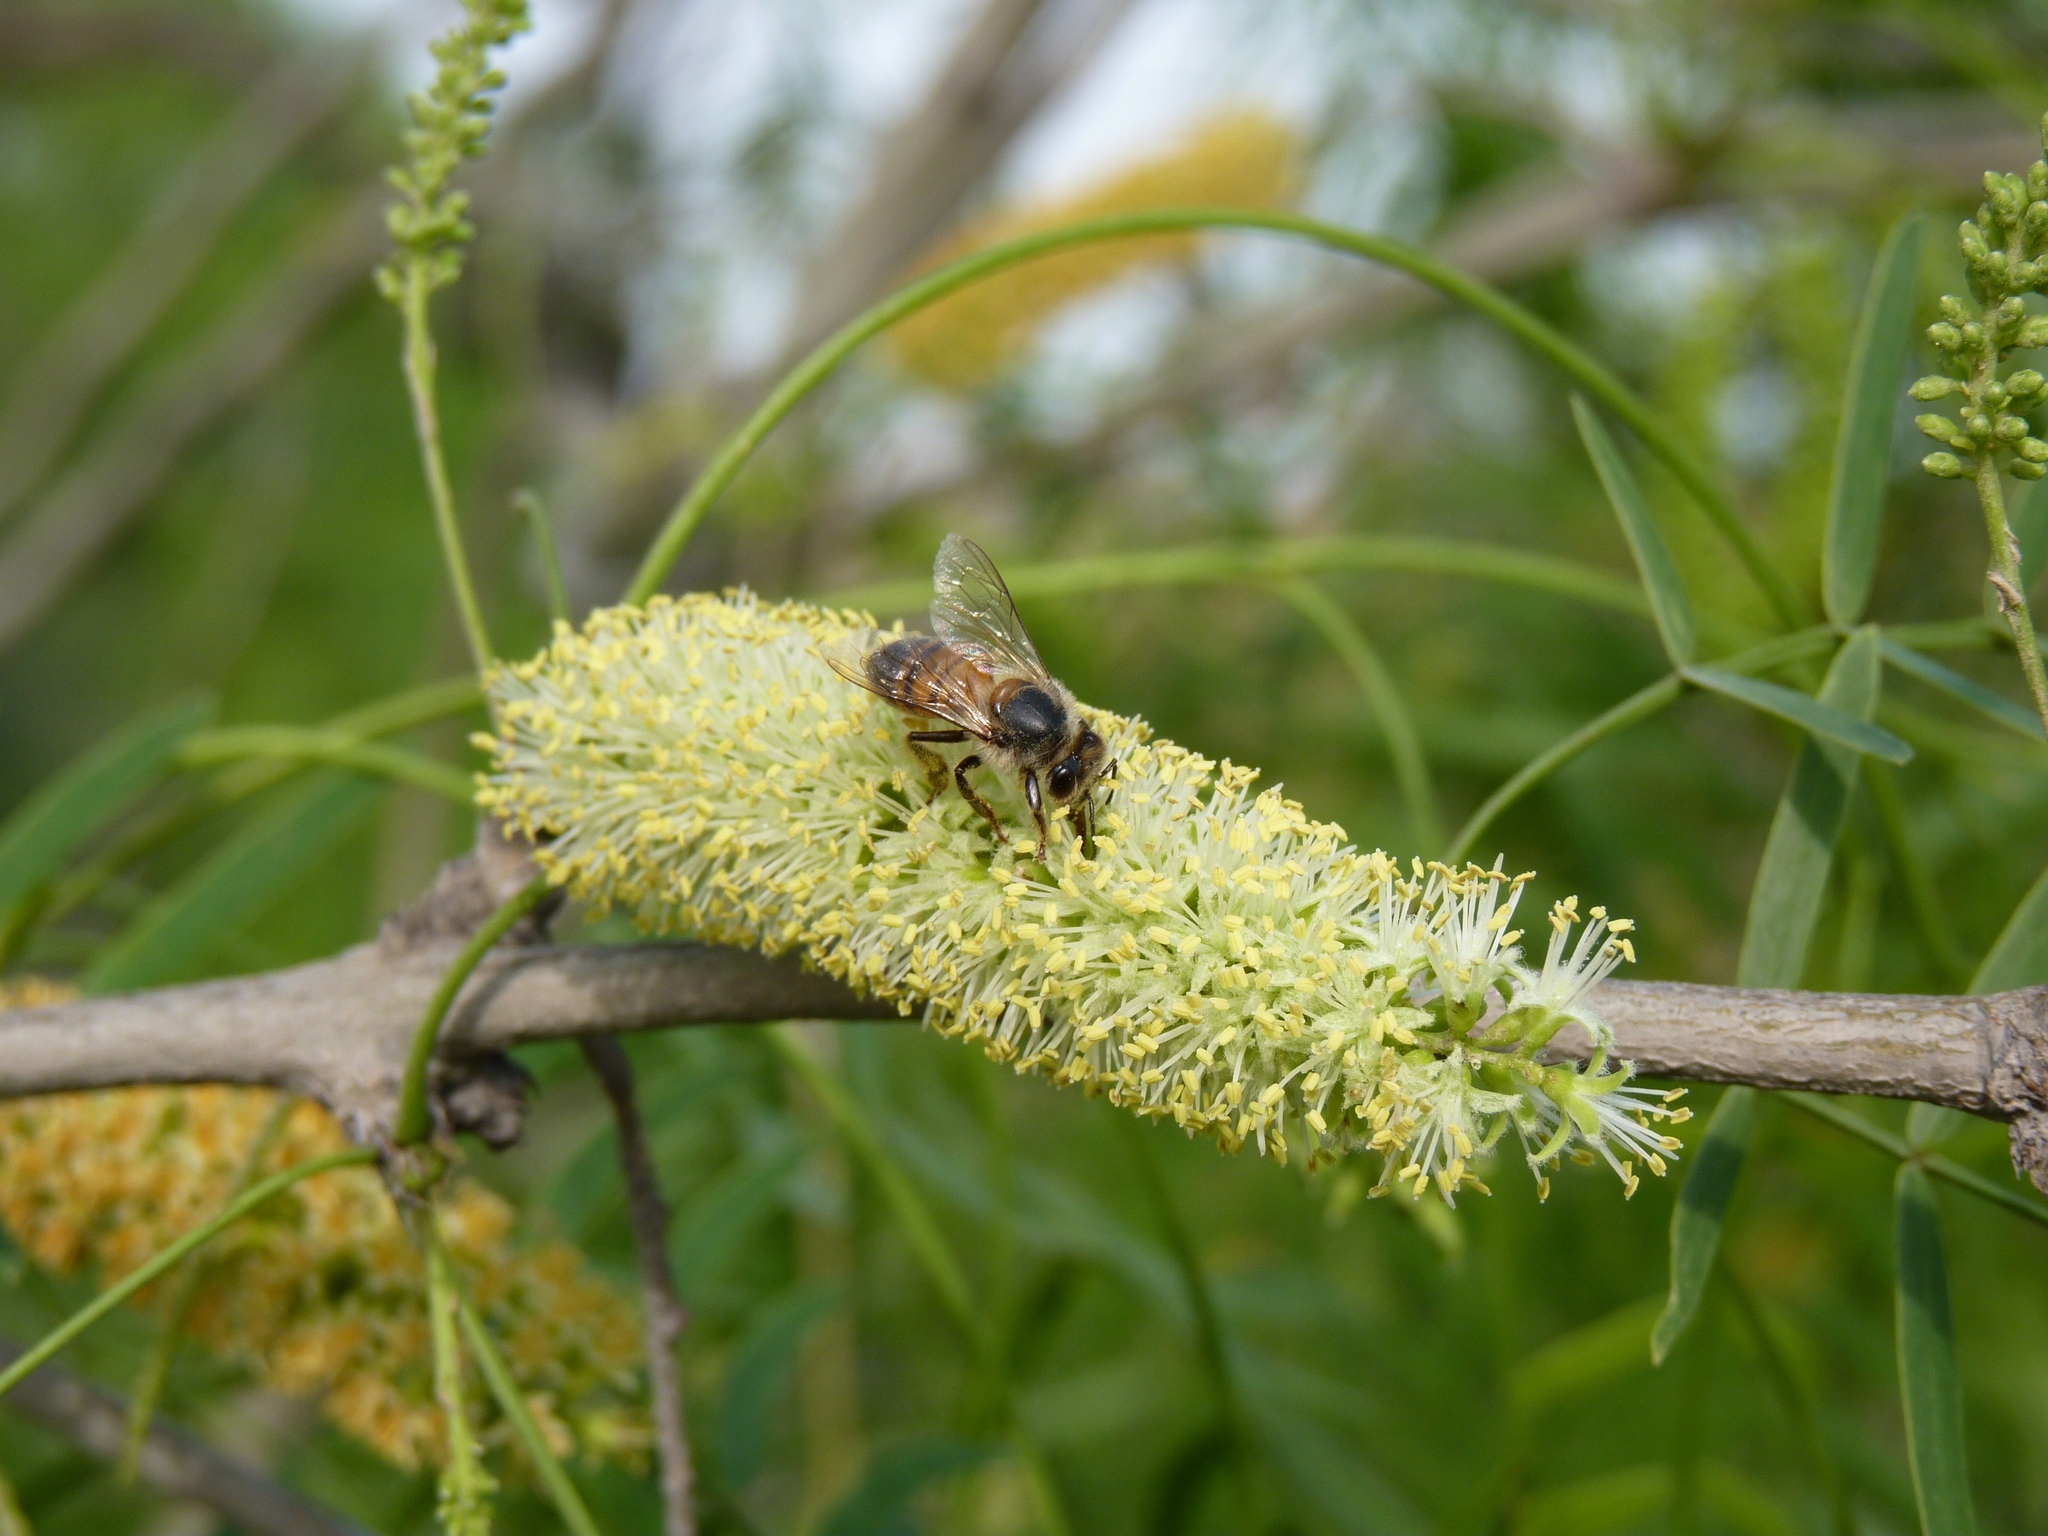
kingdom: Animalia
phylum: Arthropoda
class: Insecta
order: Hymenoptera
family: Apidae
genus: Apis
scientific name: Apis mellifera
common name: Honey bee
